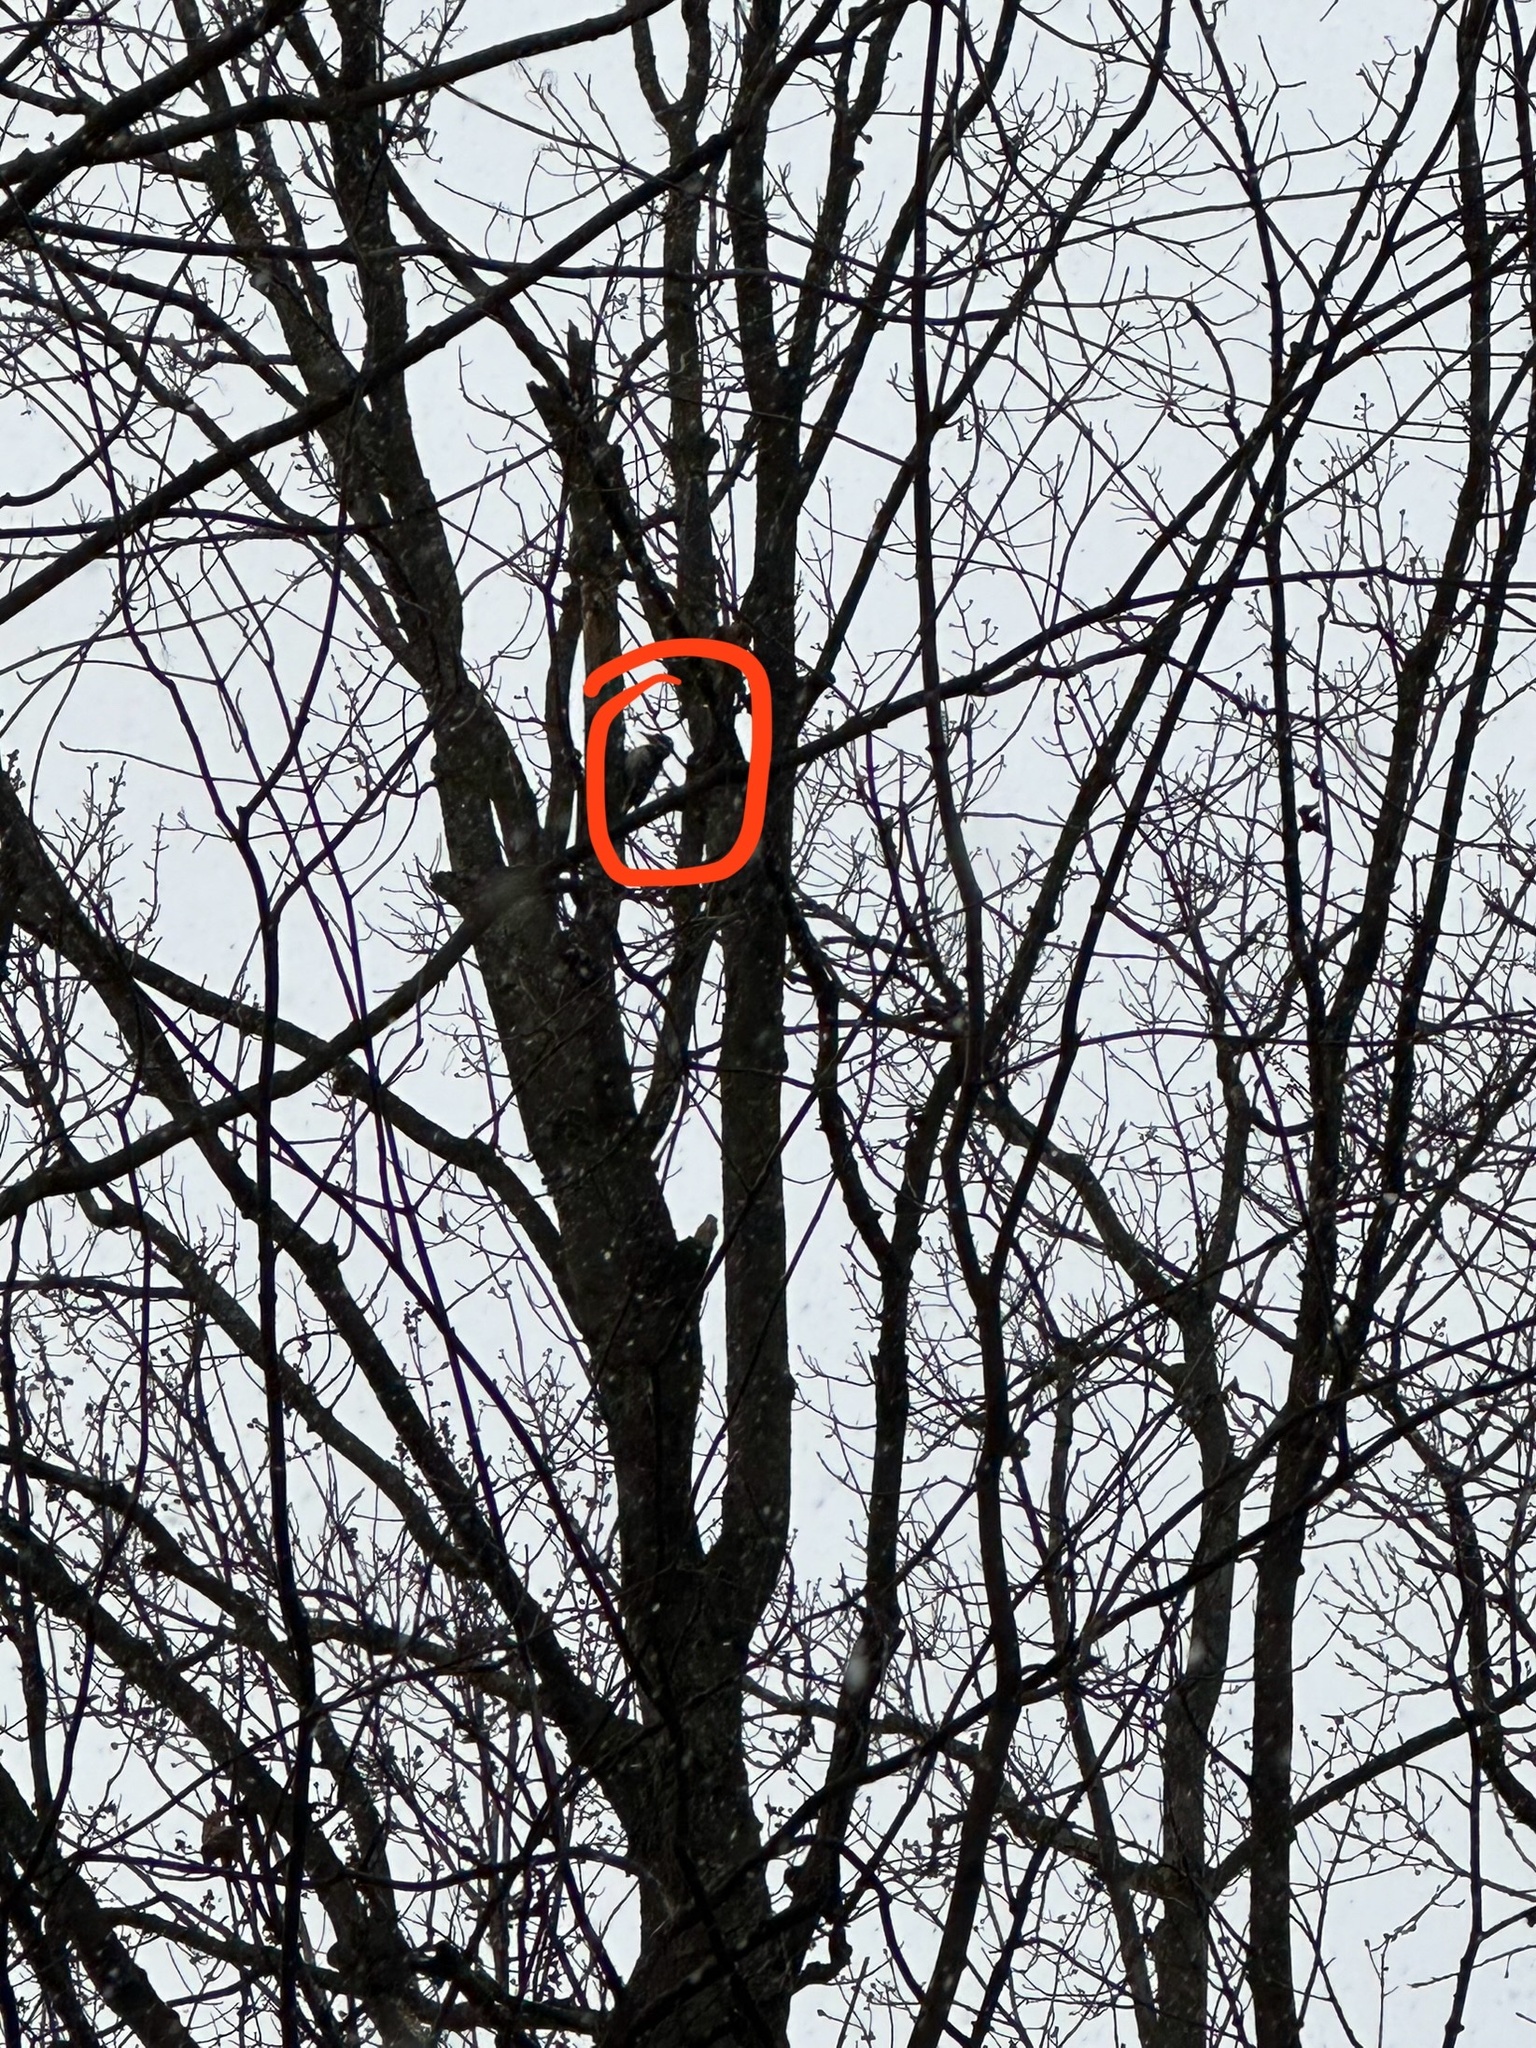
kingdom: Animalia
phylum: Chordata
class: Aves
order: Piciformes
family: Picidae
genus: Leuconotopicus
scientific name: Leuconotopicus villosus
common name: Hairy woodpecker
